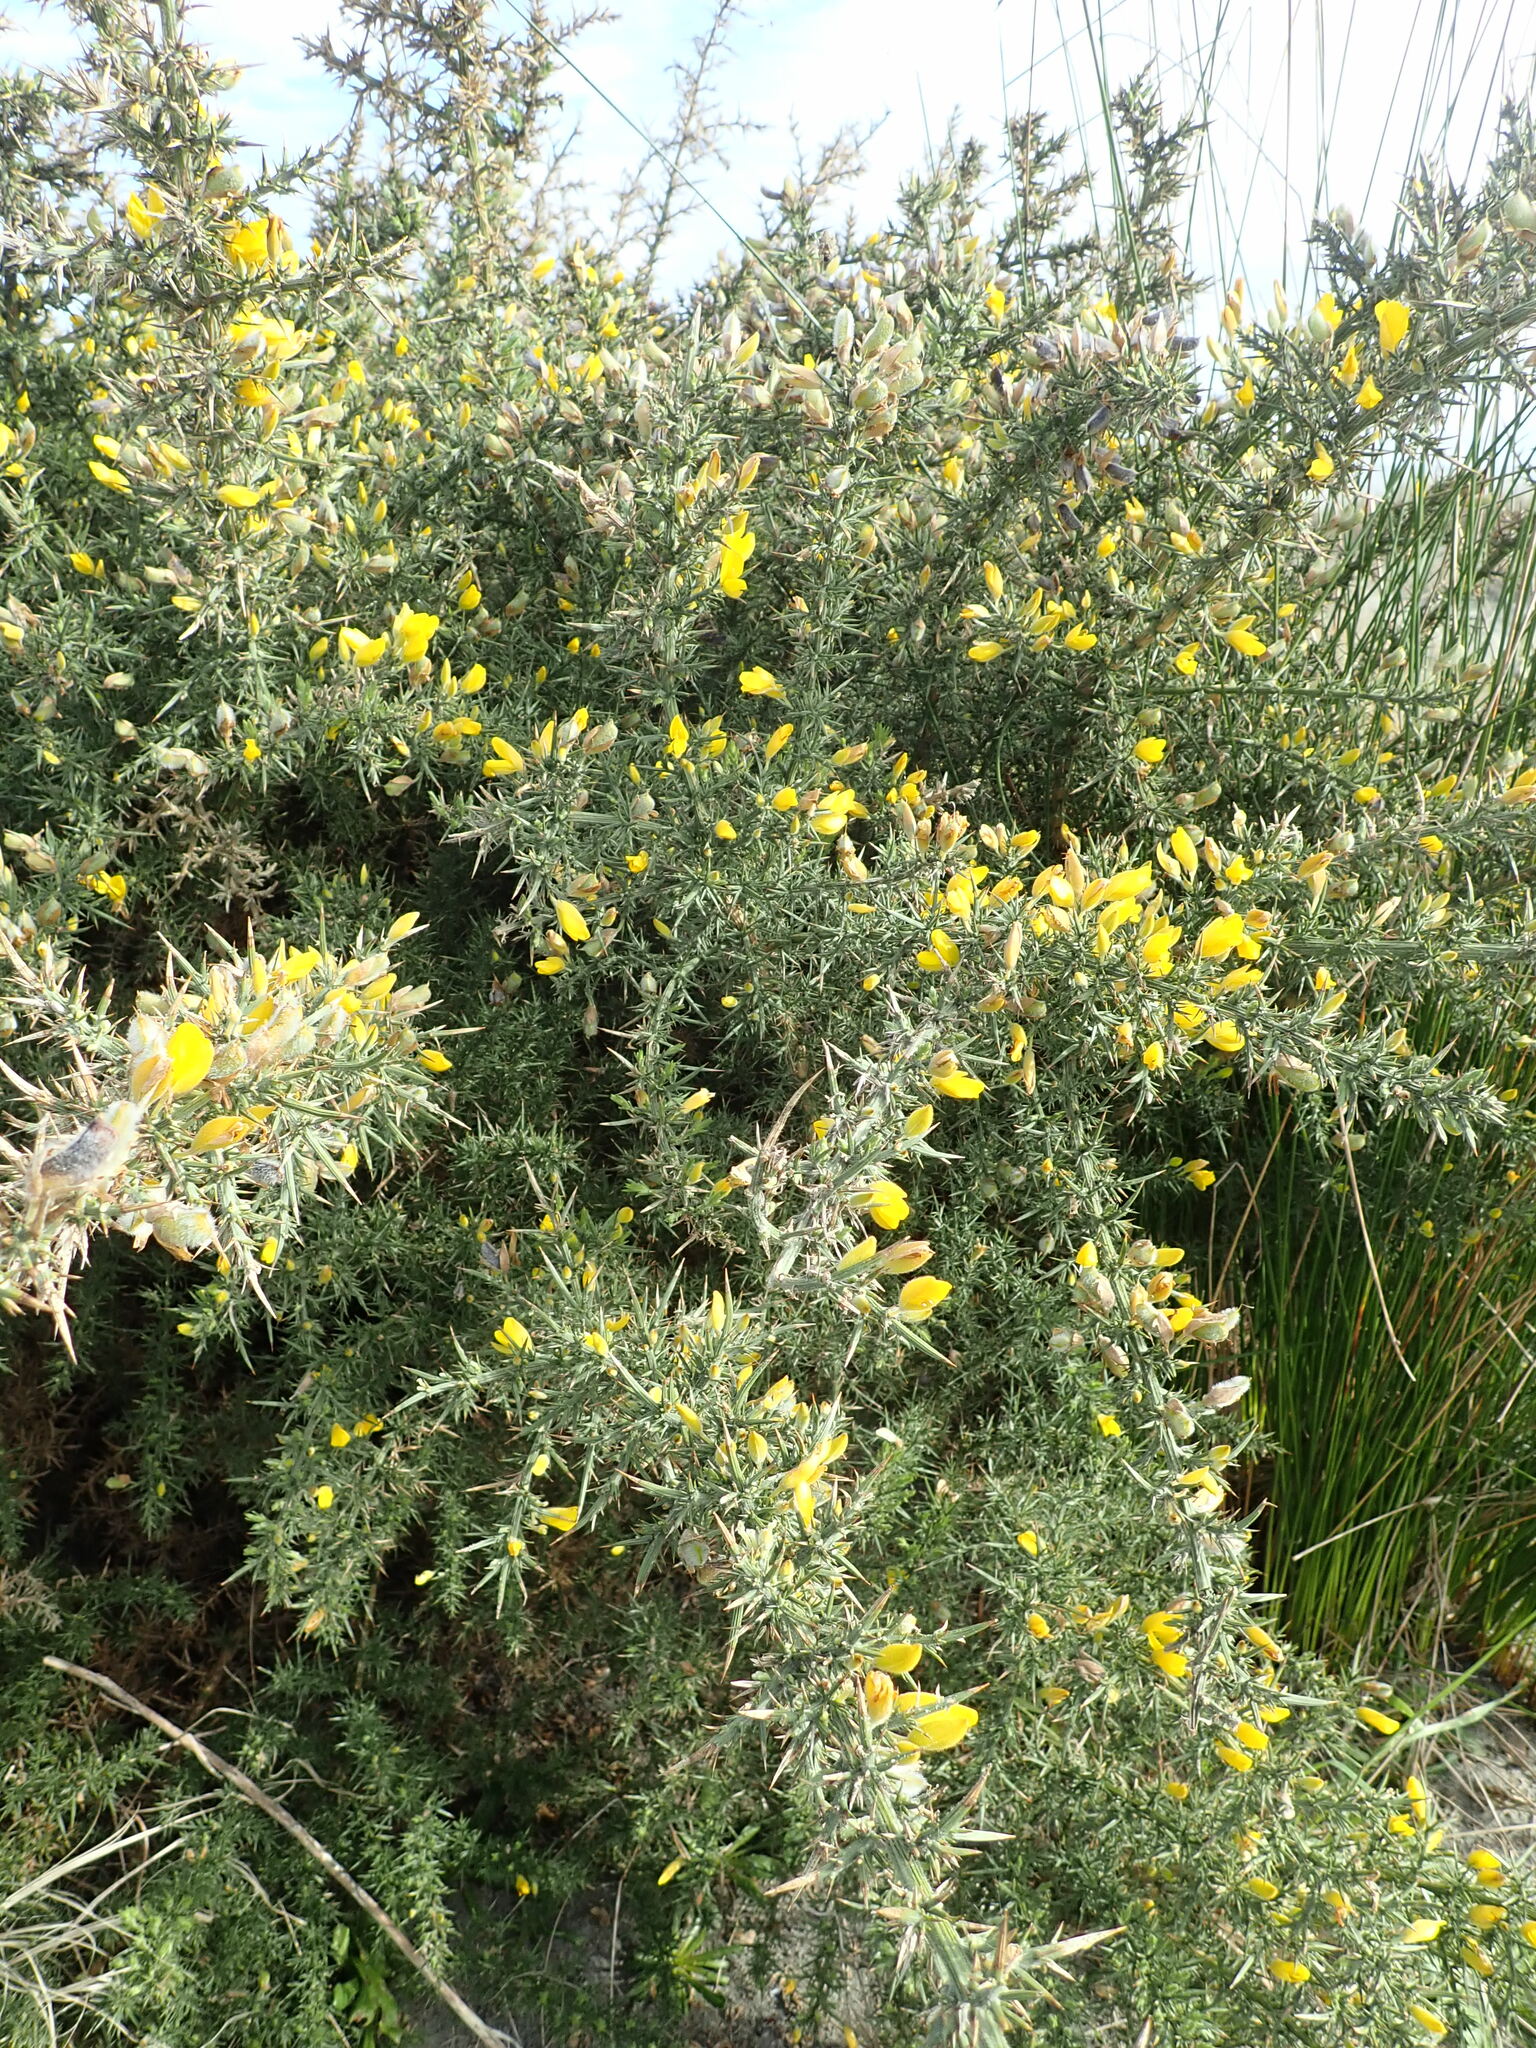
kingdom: Plantae
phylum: Tracheophyta
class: Magnoliopsida
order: Fabales
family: Fabaceae
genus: Ulex
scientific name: Ulex europaeus
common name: Common gorse
